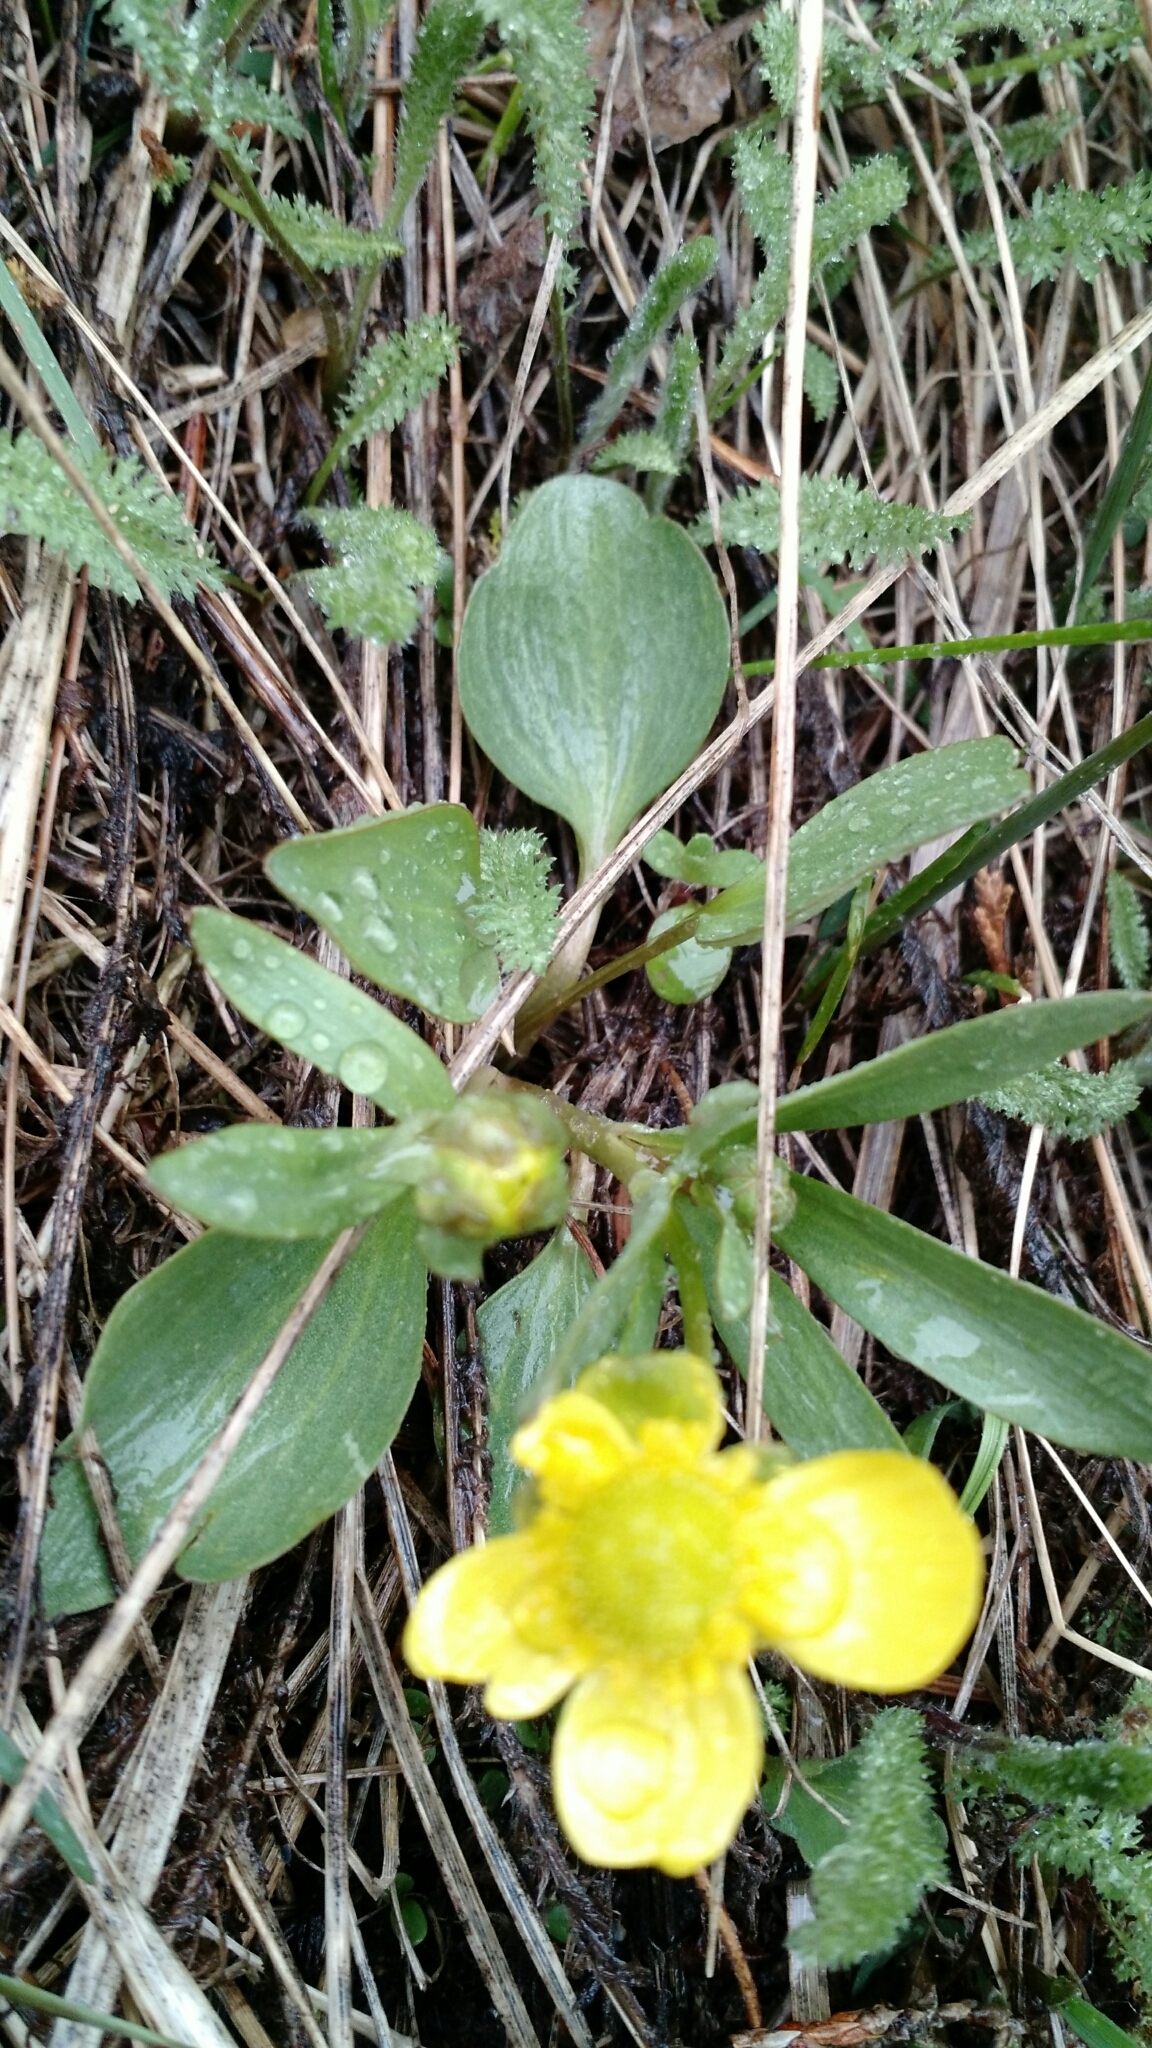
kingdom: Plantae
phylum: Tracheophyta
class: Magnoliopsida
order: Ranunculales
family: Ranunculaceae
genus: Ranunculus
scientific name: Ranunculus glaberrimus
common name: Sagebrush buttercup
